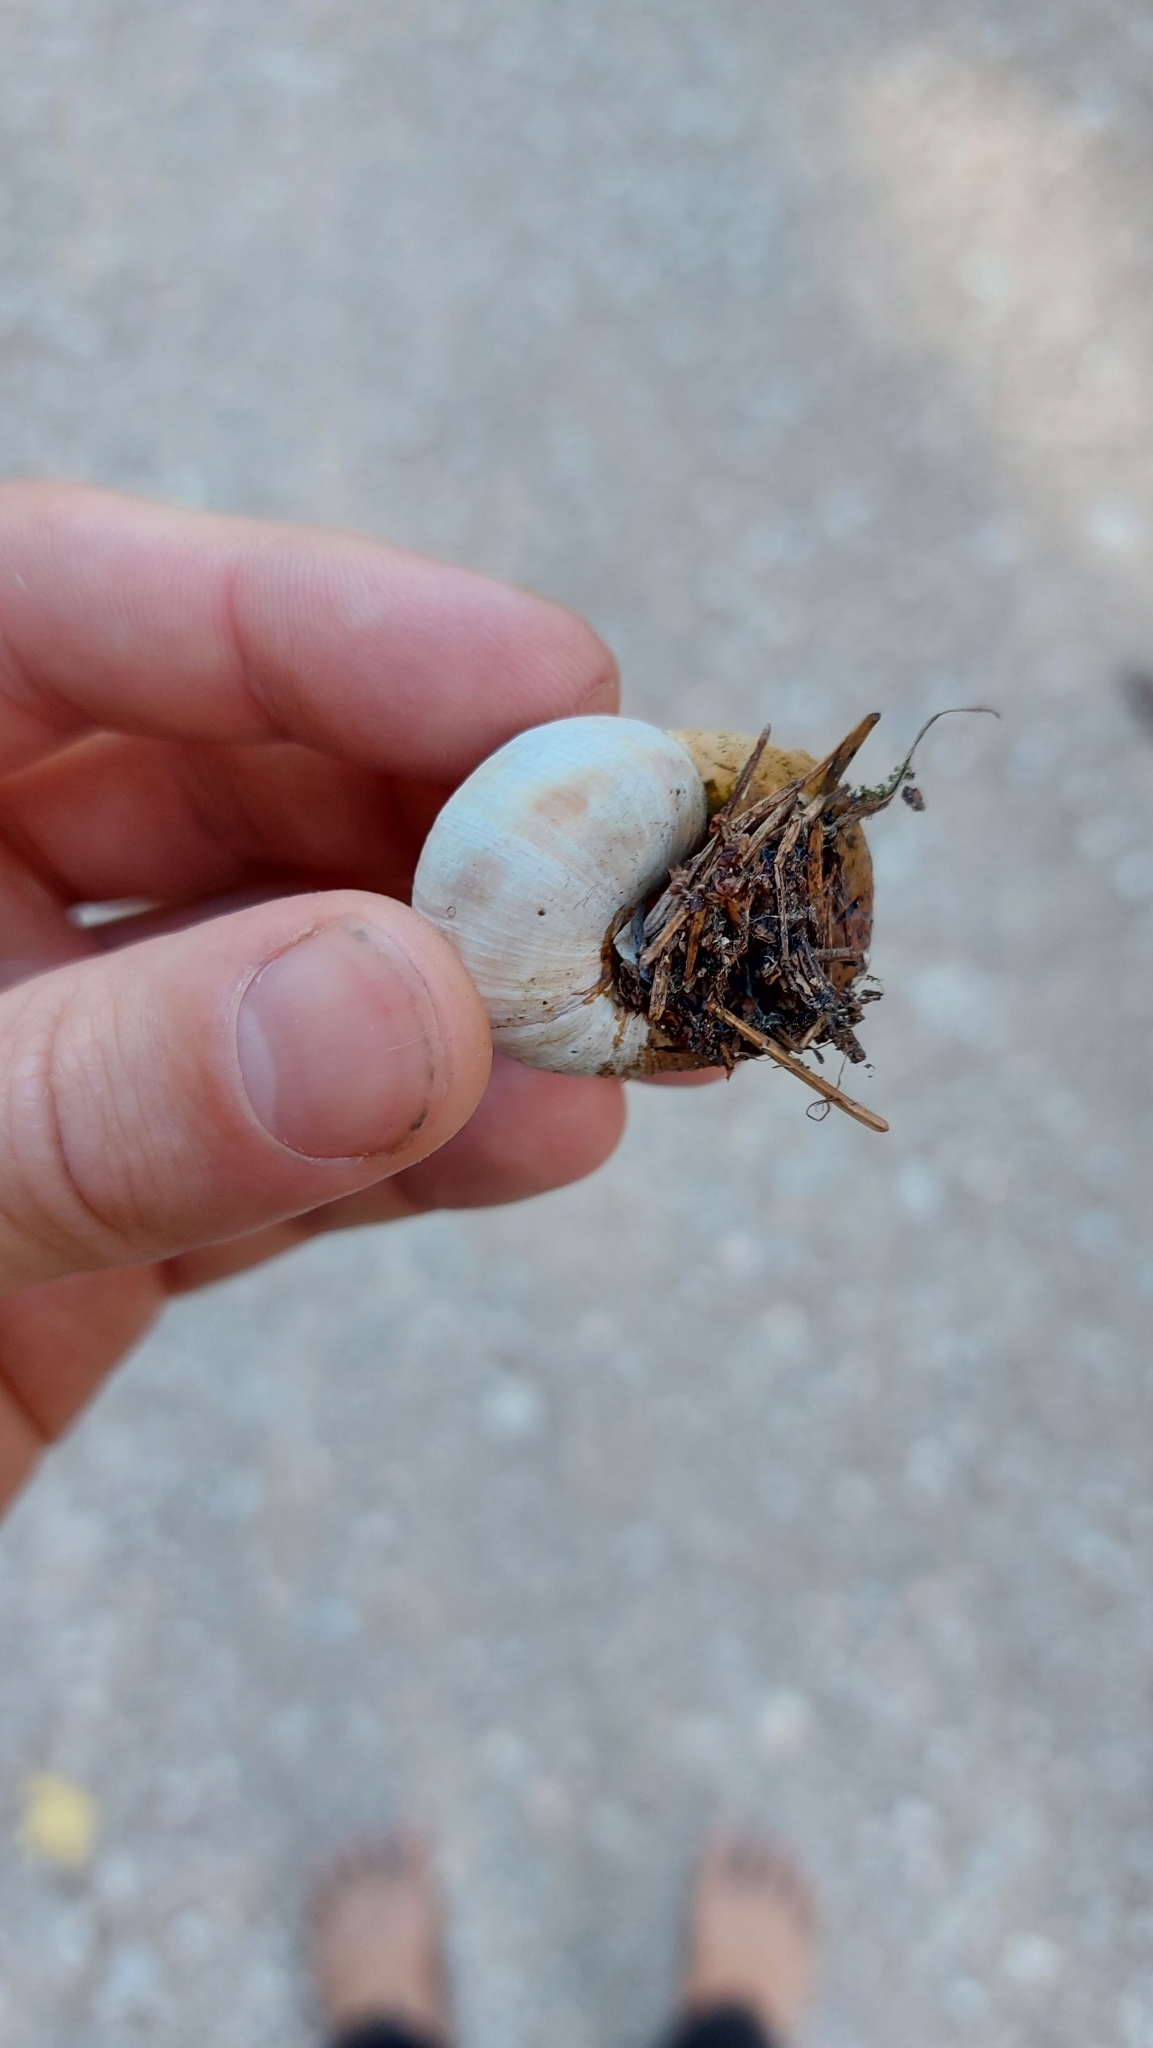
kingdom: Animalia
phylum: Mollusca
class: Gastropoda
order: Stylommatophora
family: Helicidae
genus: Helix
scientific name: Helix pomatia
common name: Roman snail
